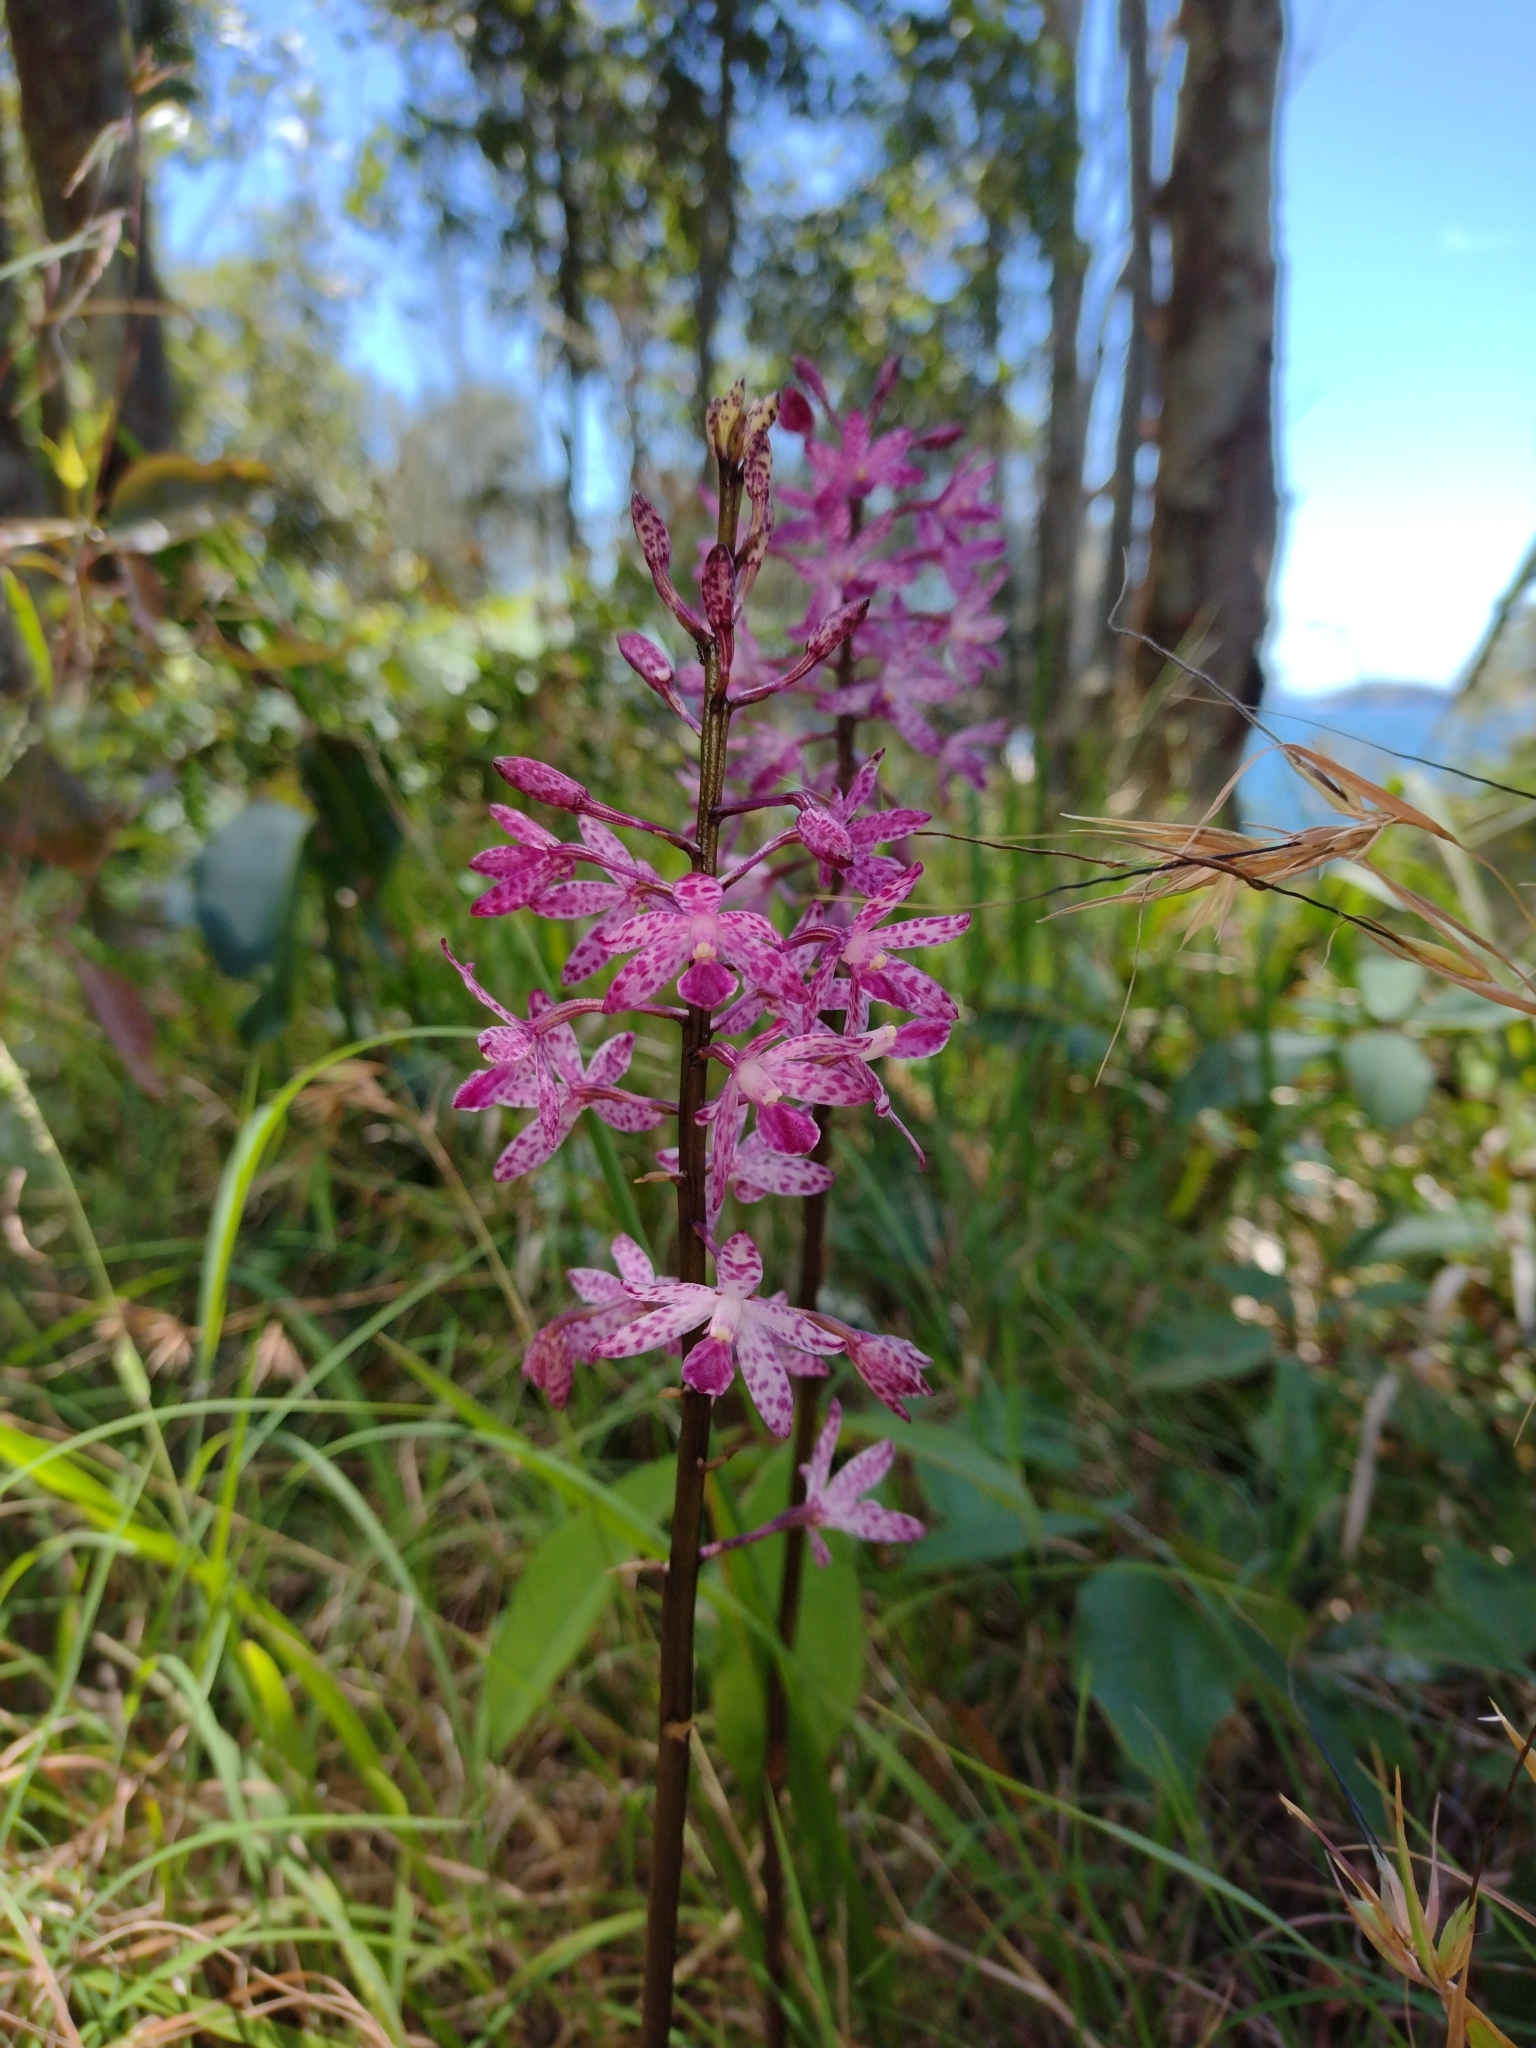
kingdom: Plantae
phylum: Tracheophyta
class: Liliopsida
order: Asparagales
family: Orchidaceae
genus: Dipodium
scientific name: Dipodium squamatum
